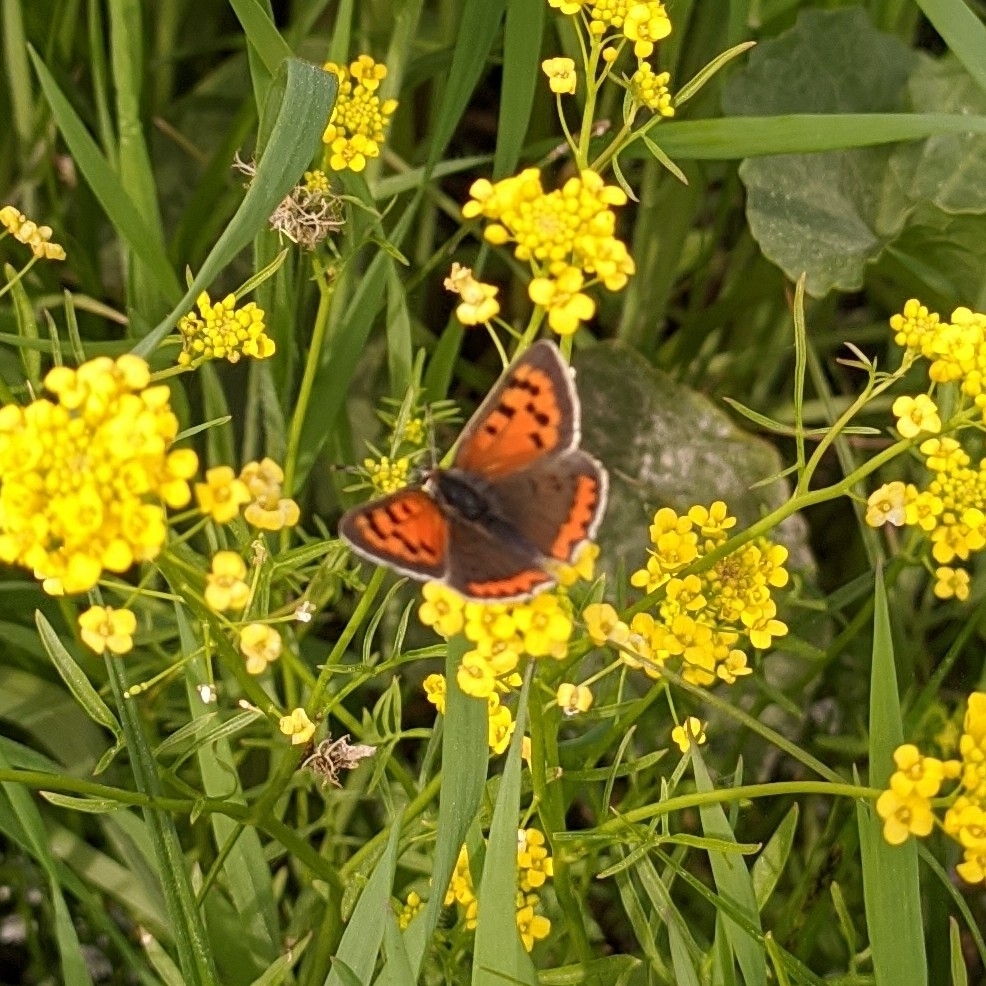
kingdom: Animalia
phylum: Arthropoda
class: Insecta
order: Lepidoptera
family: Lycaenidae
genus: Lycaena
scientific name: Lycaena phlaeas
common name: Small copper
